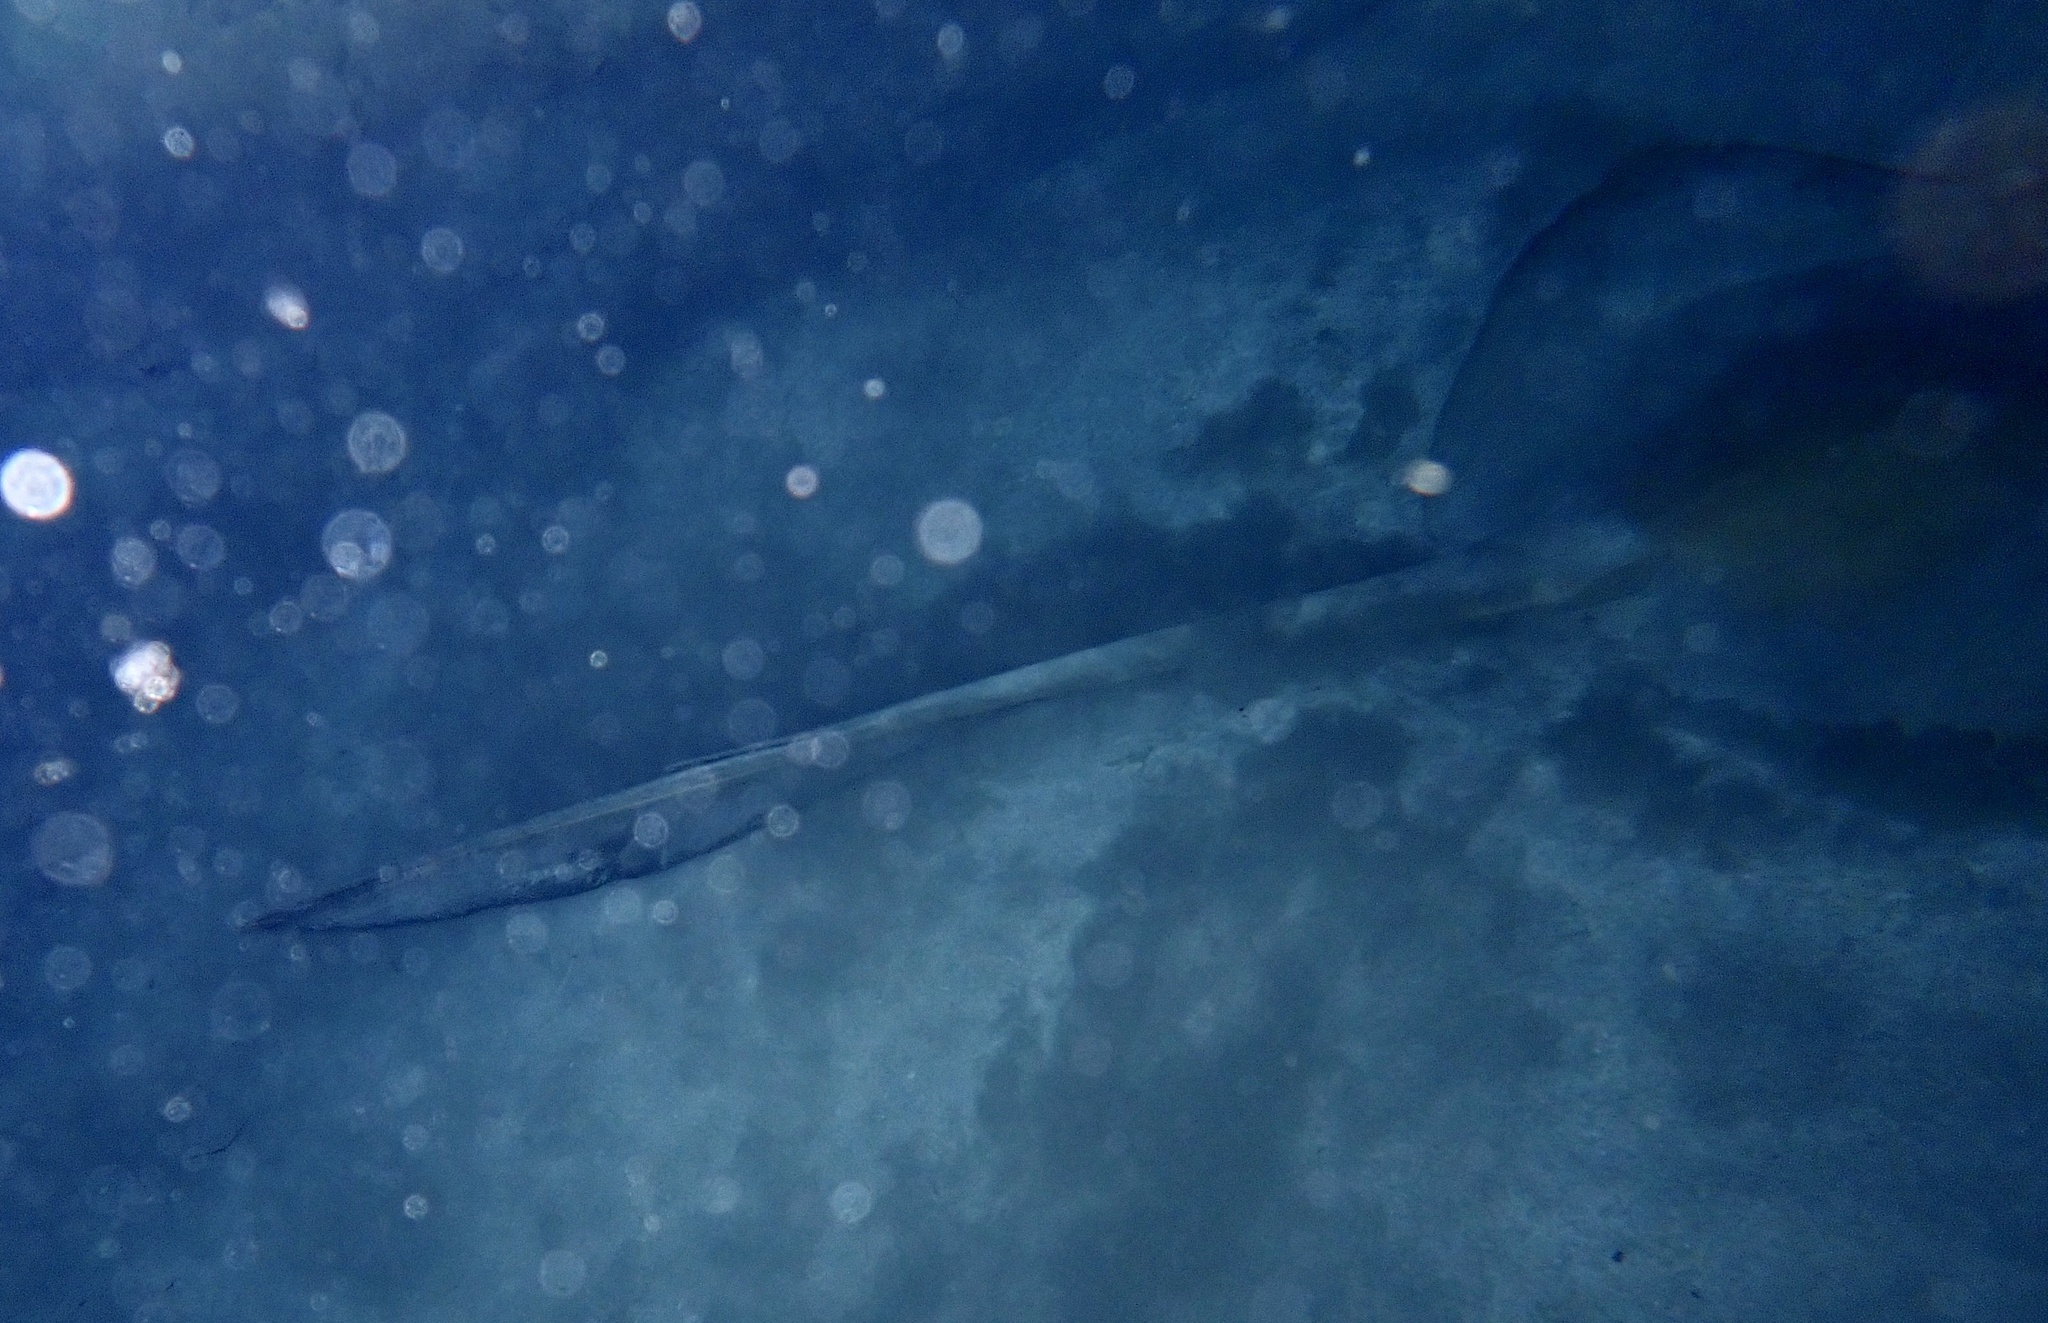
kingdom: Animalia
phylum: Chordata
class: Elasmobranchii
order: Myliobatiformes
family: Dasyatidae
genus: Pastinachus
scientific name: Pastinachus sephen
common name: Cowtail ray
